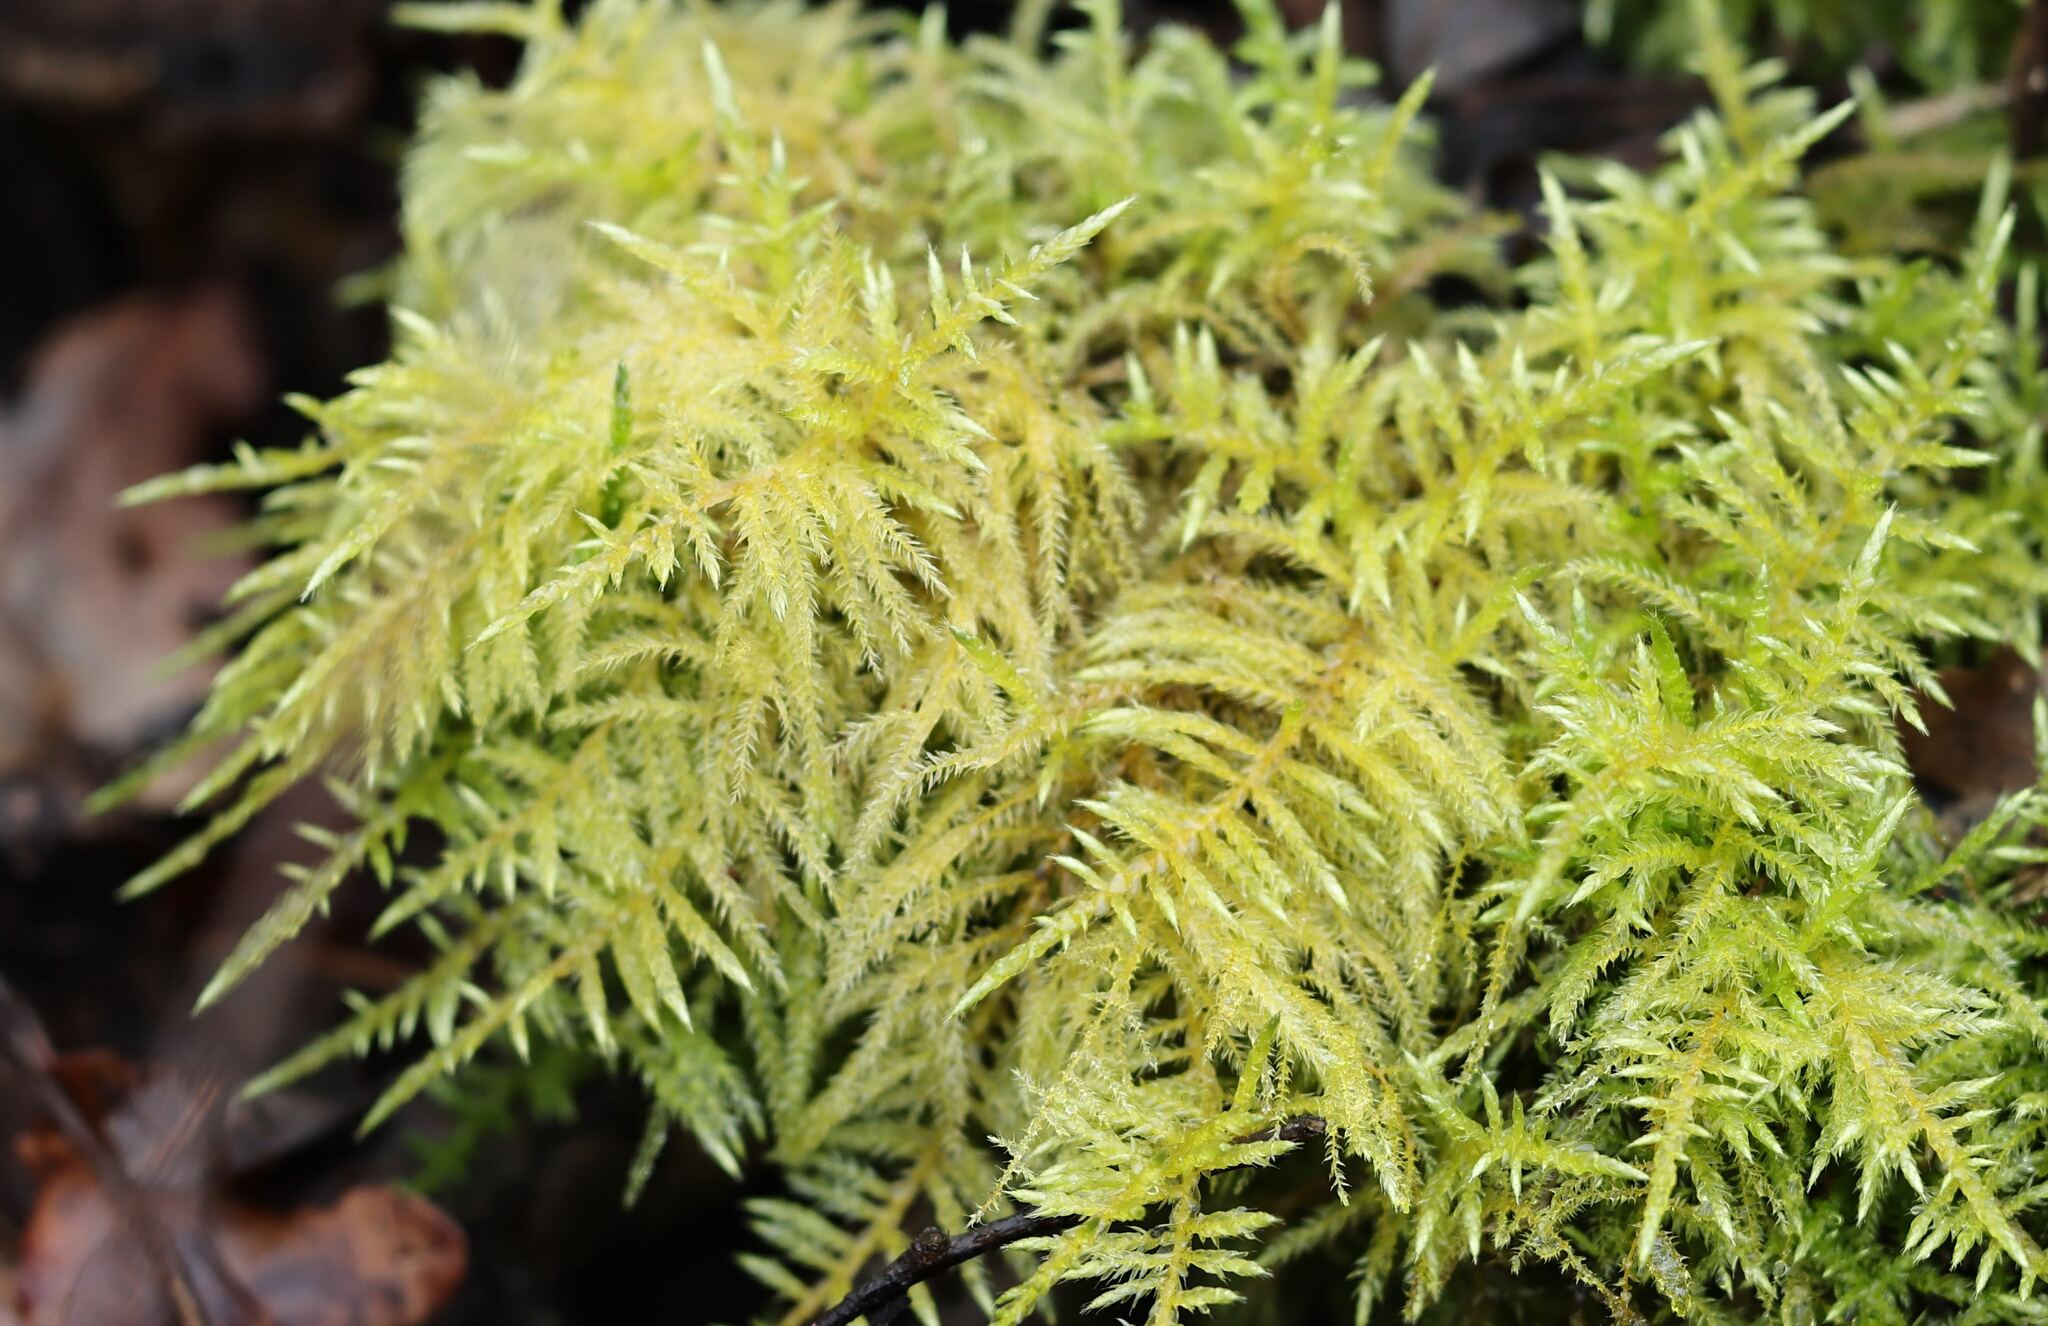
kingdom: Plantae
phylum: Bryophyta
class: Bryopsida
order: Hypnales
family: Brachytheciaceae
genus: Cirriphyllum
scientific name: Cirriphyllum piliferum
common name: Hair-pointed moss
